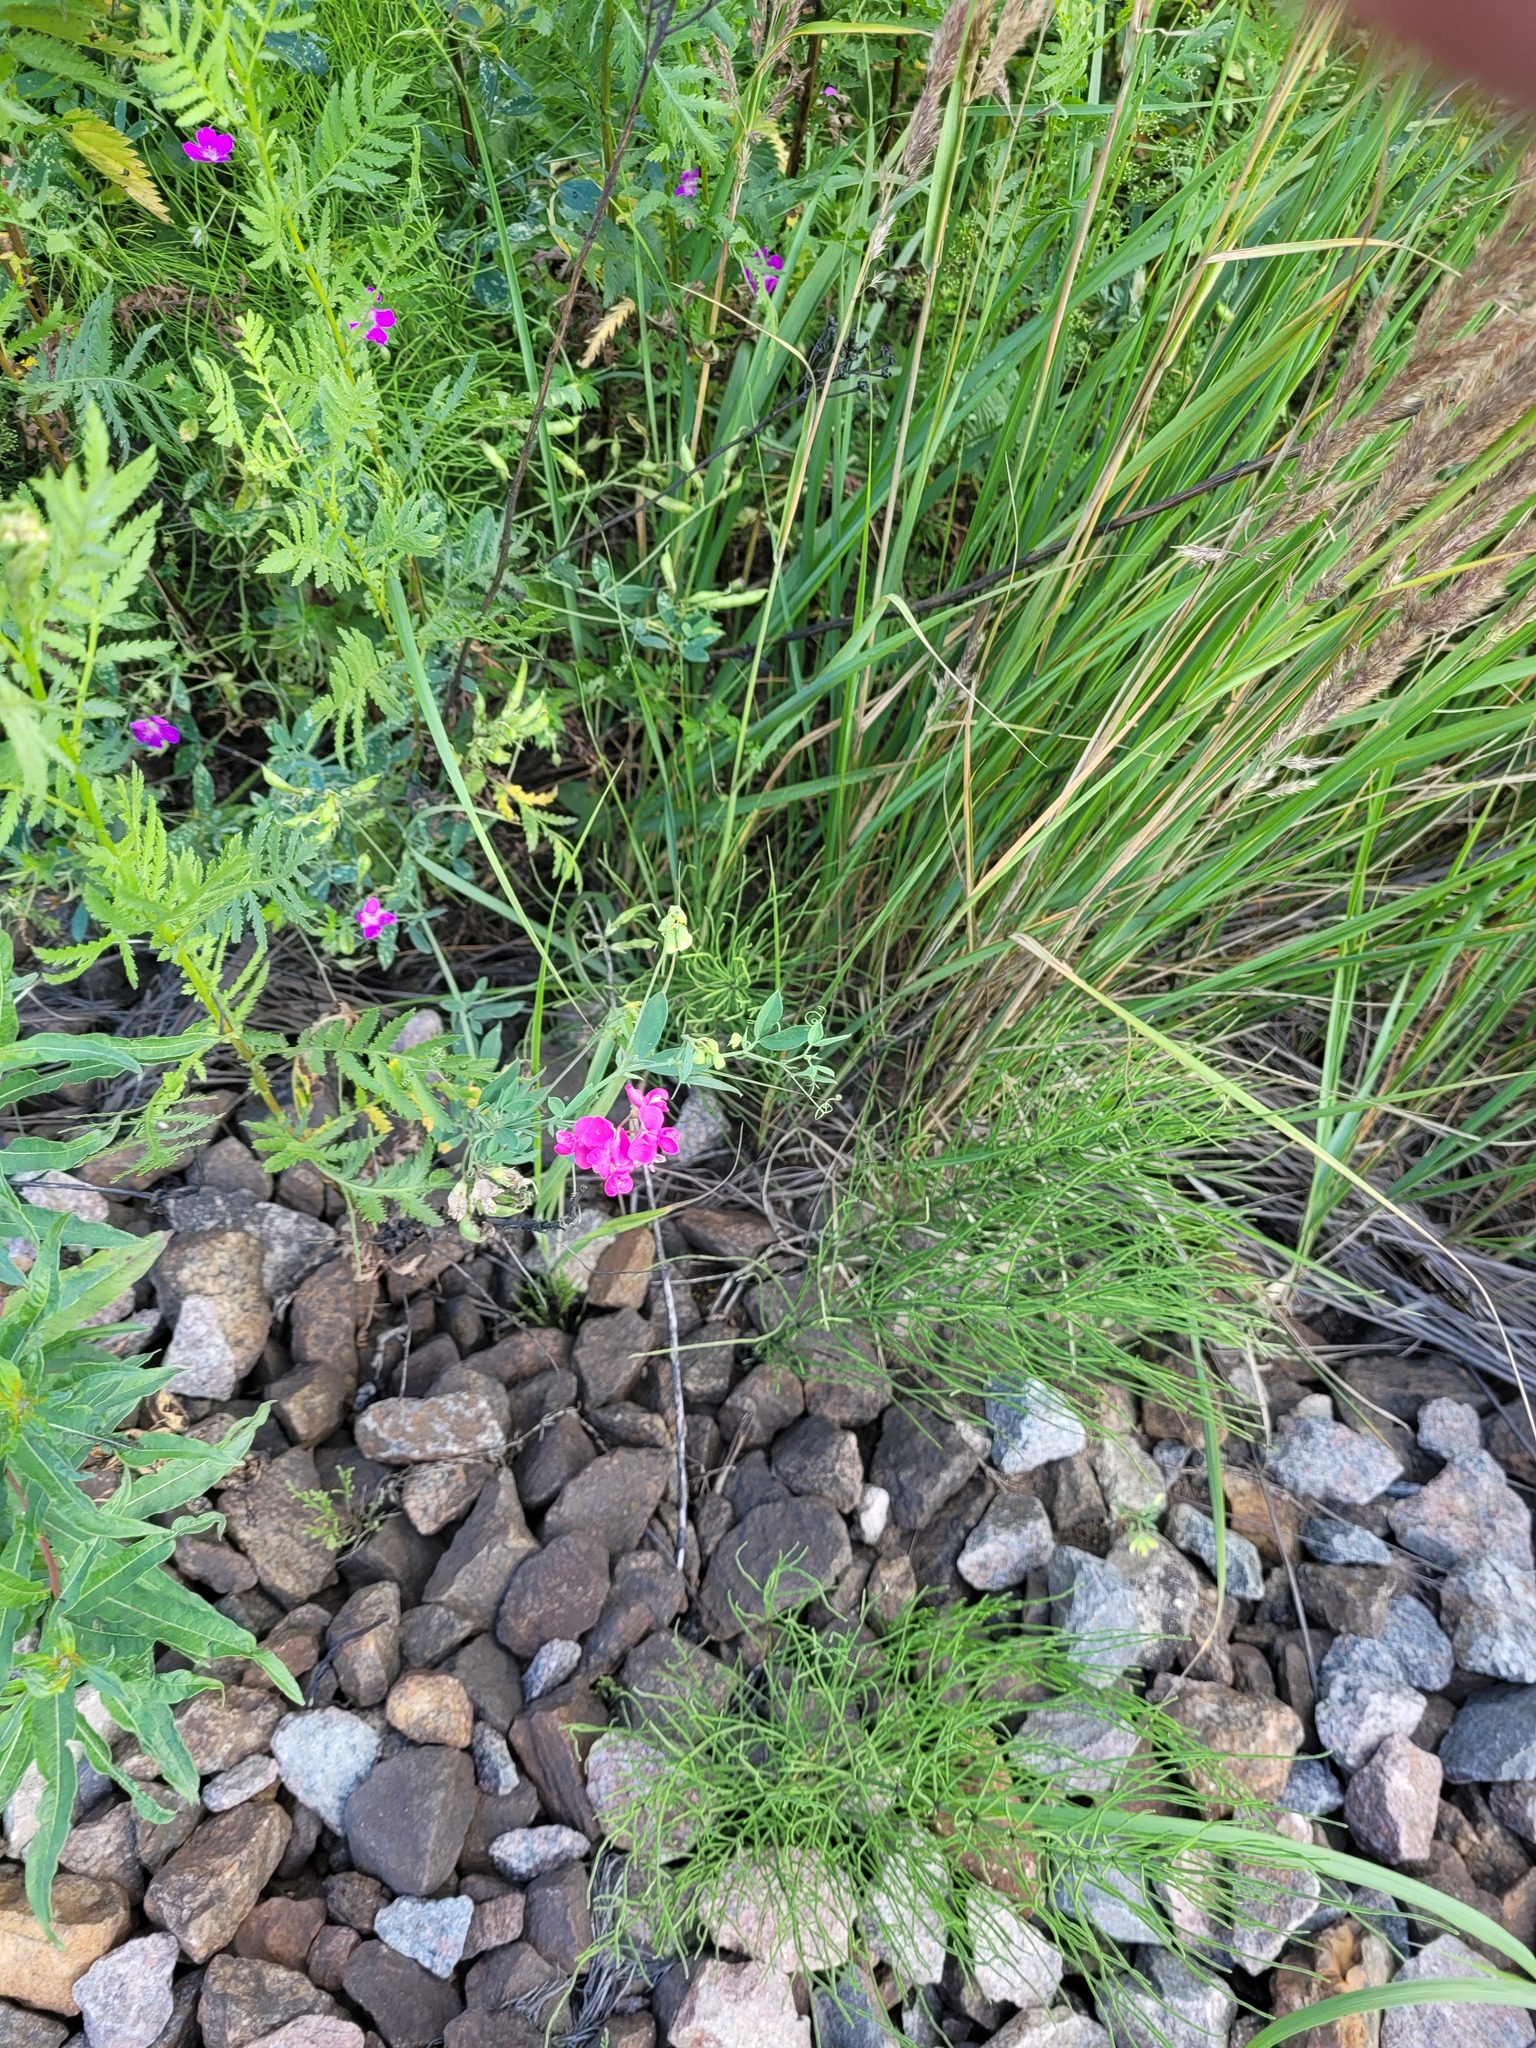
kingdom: Plantae
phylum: Tracheophyta
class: Magnoliopsida
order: Fabales
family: Fabaceae
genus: Lathyrus
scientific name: Lathyrus tuberosus
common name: Tuberous pea
